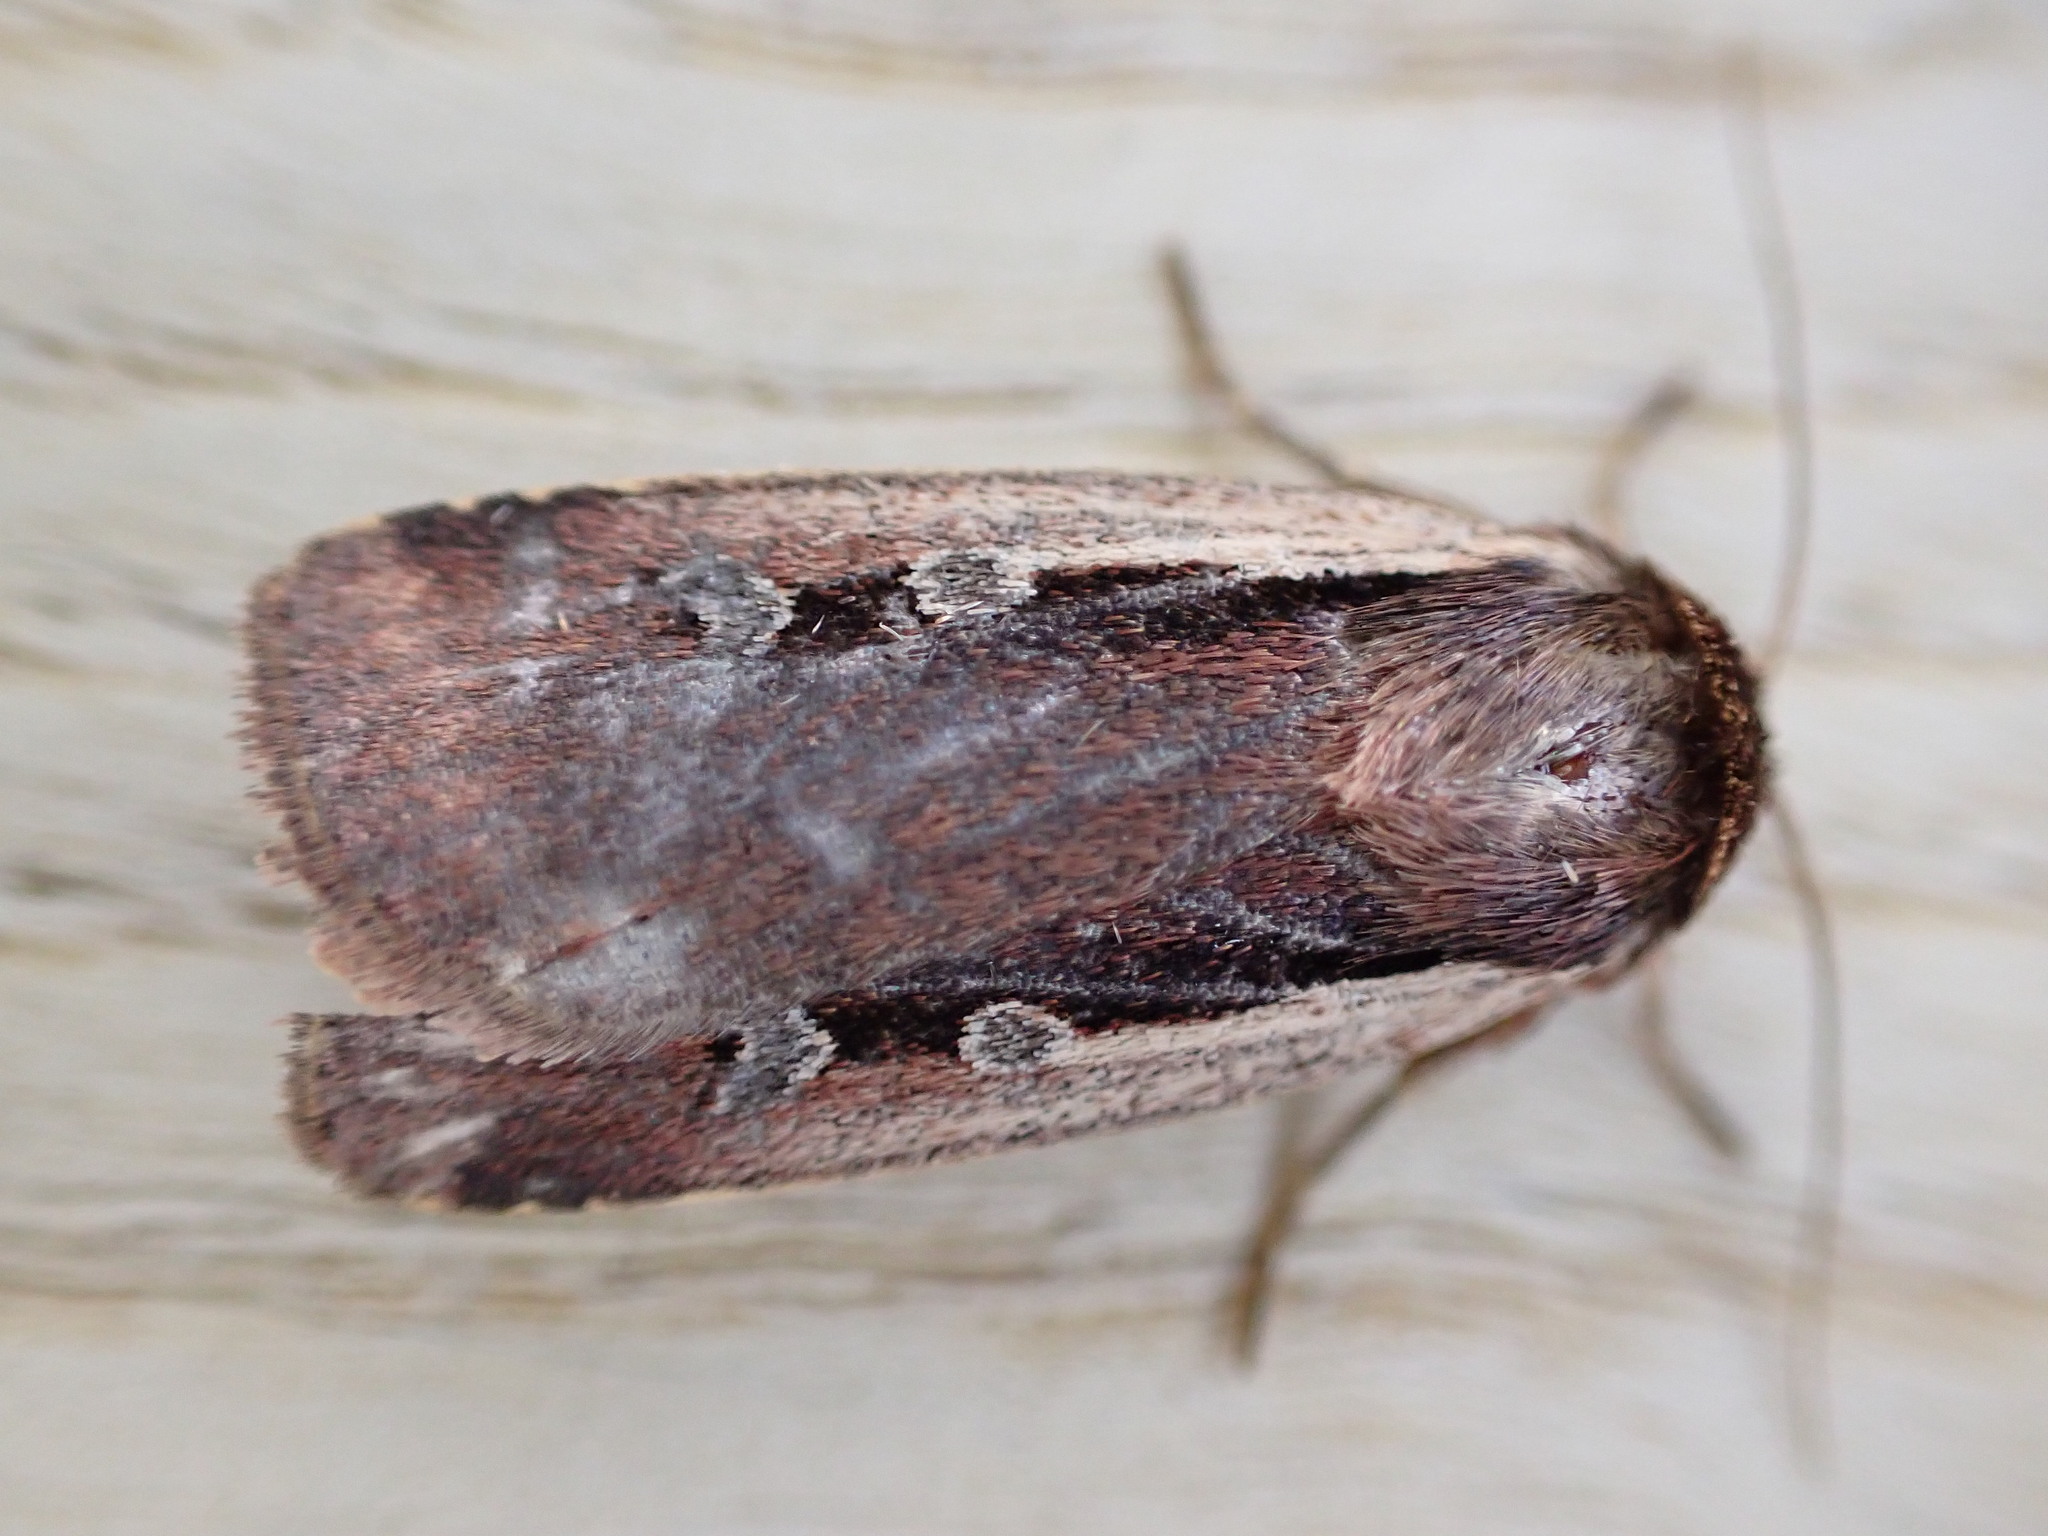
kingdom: Animalia
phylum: Arthropoda
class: Insecta
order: Lepidoptera
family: Noctuidae
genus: Ochropleura
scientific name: Ochropleura plecta
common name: Flame shoulder
